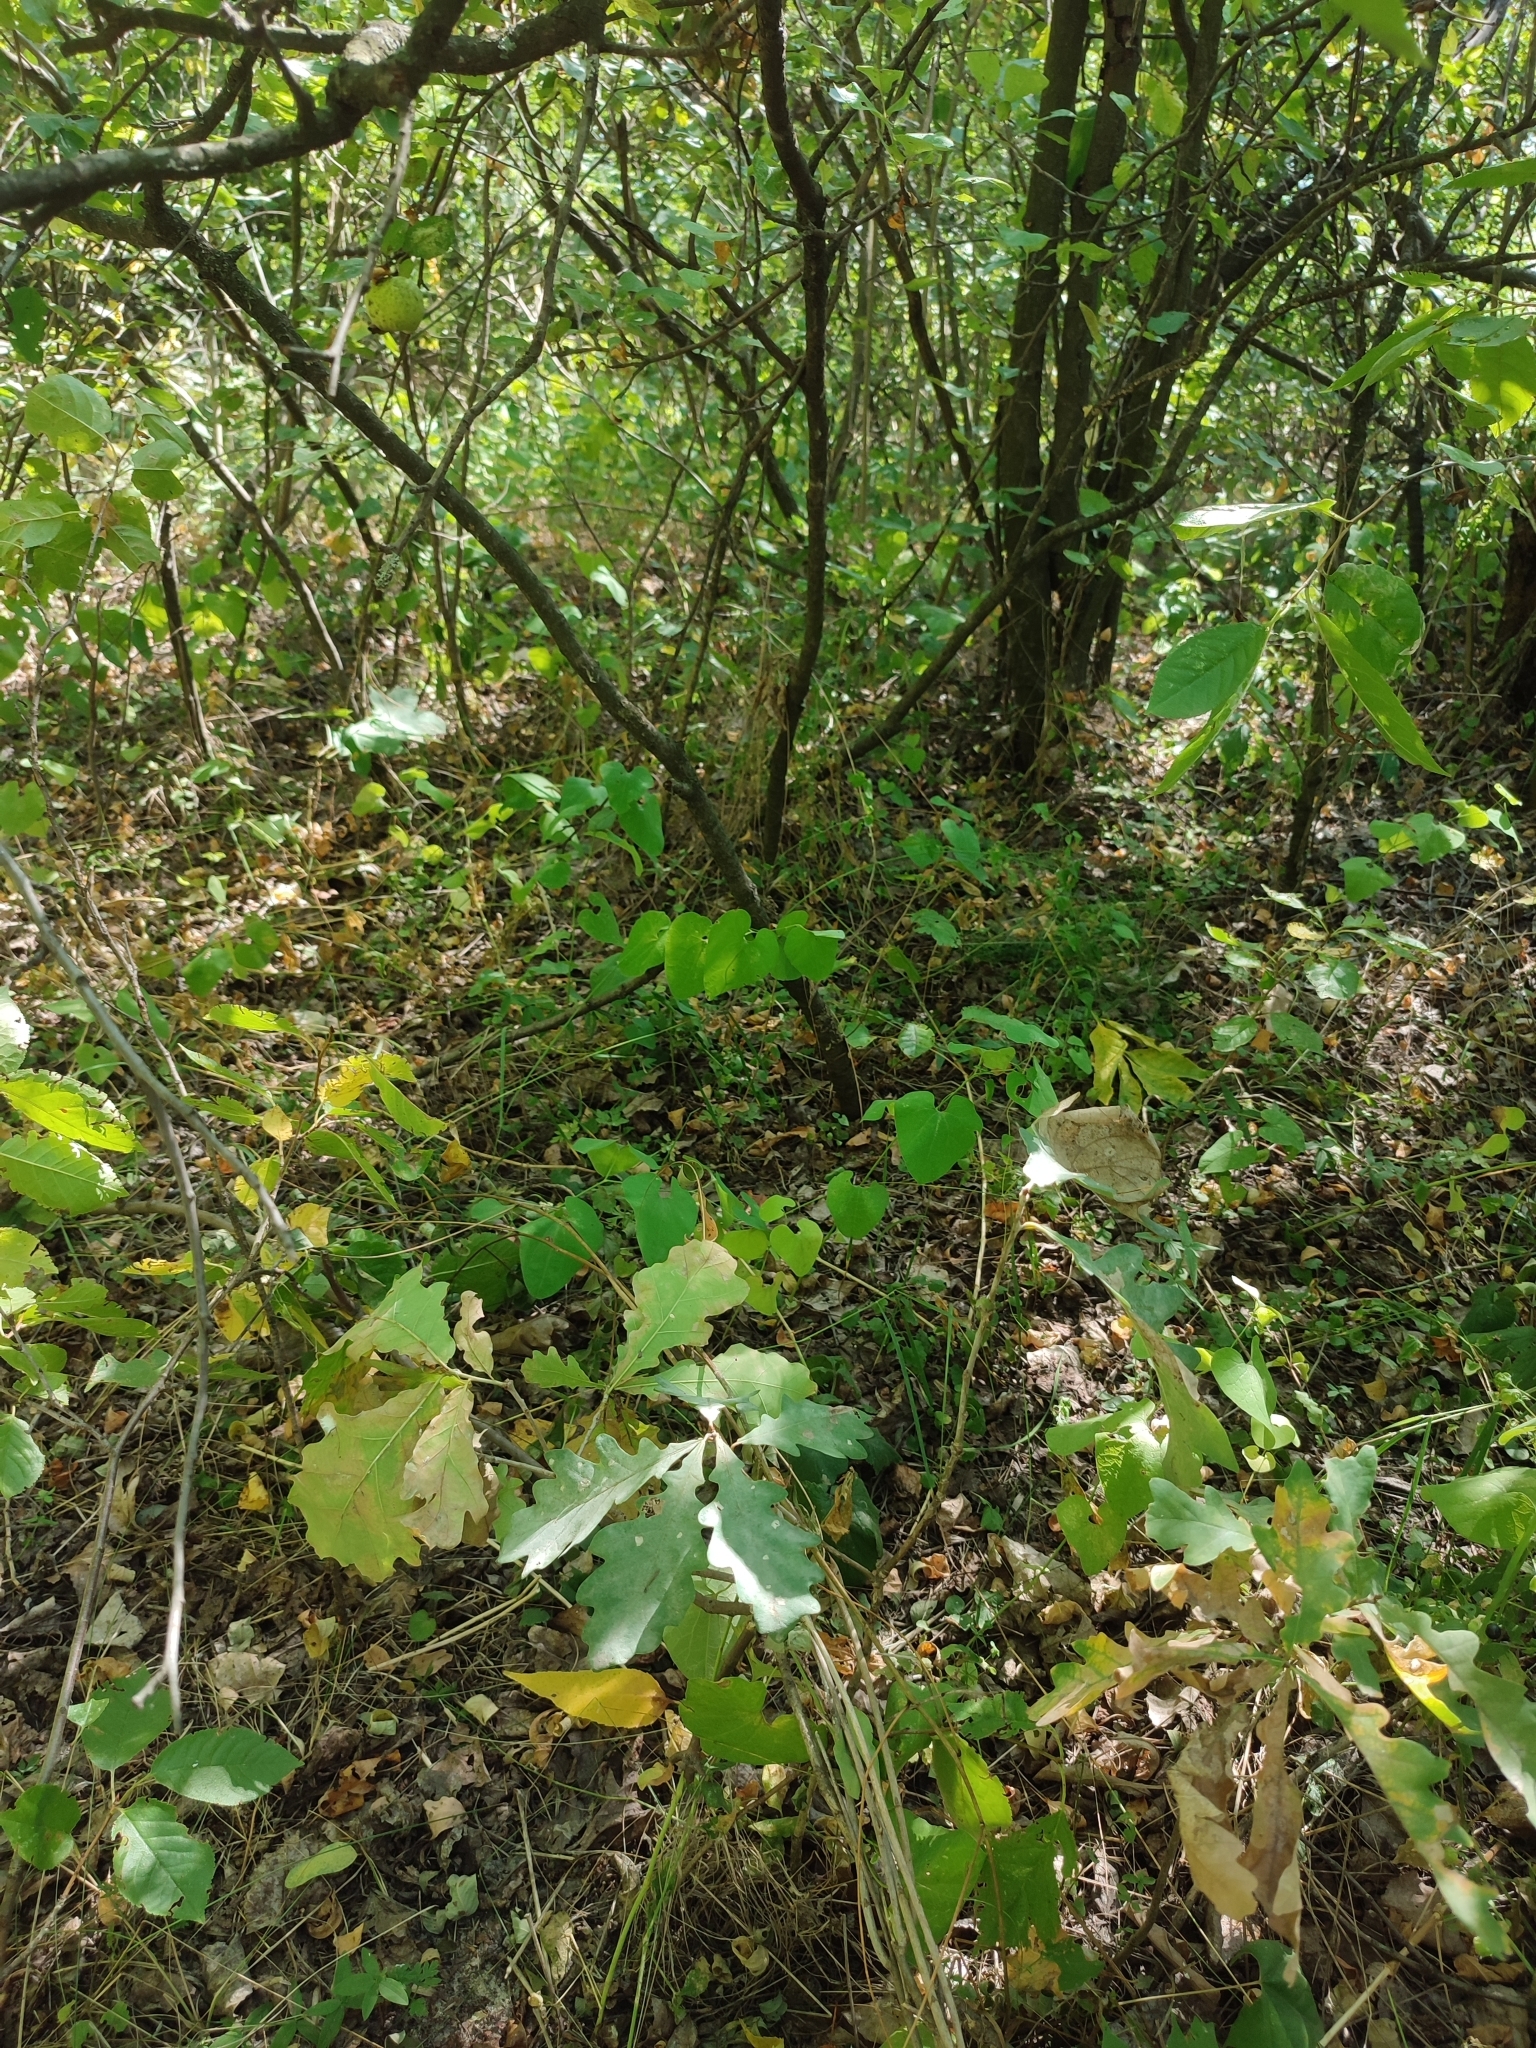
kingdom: Plantae
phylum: Tracheophyta
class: Magnoliopsida
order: Fagales
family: Fagaceae
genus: Quercus
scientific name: Quercus robur
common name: Pedunculate oak
